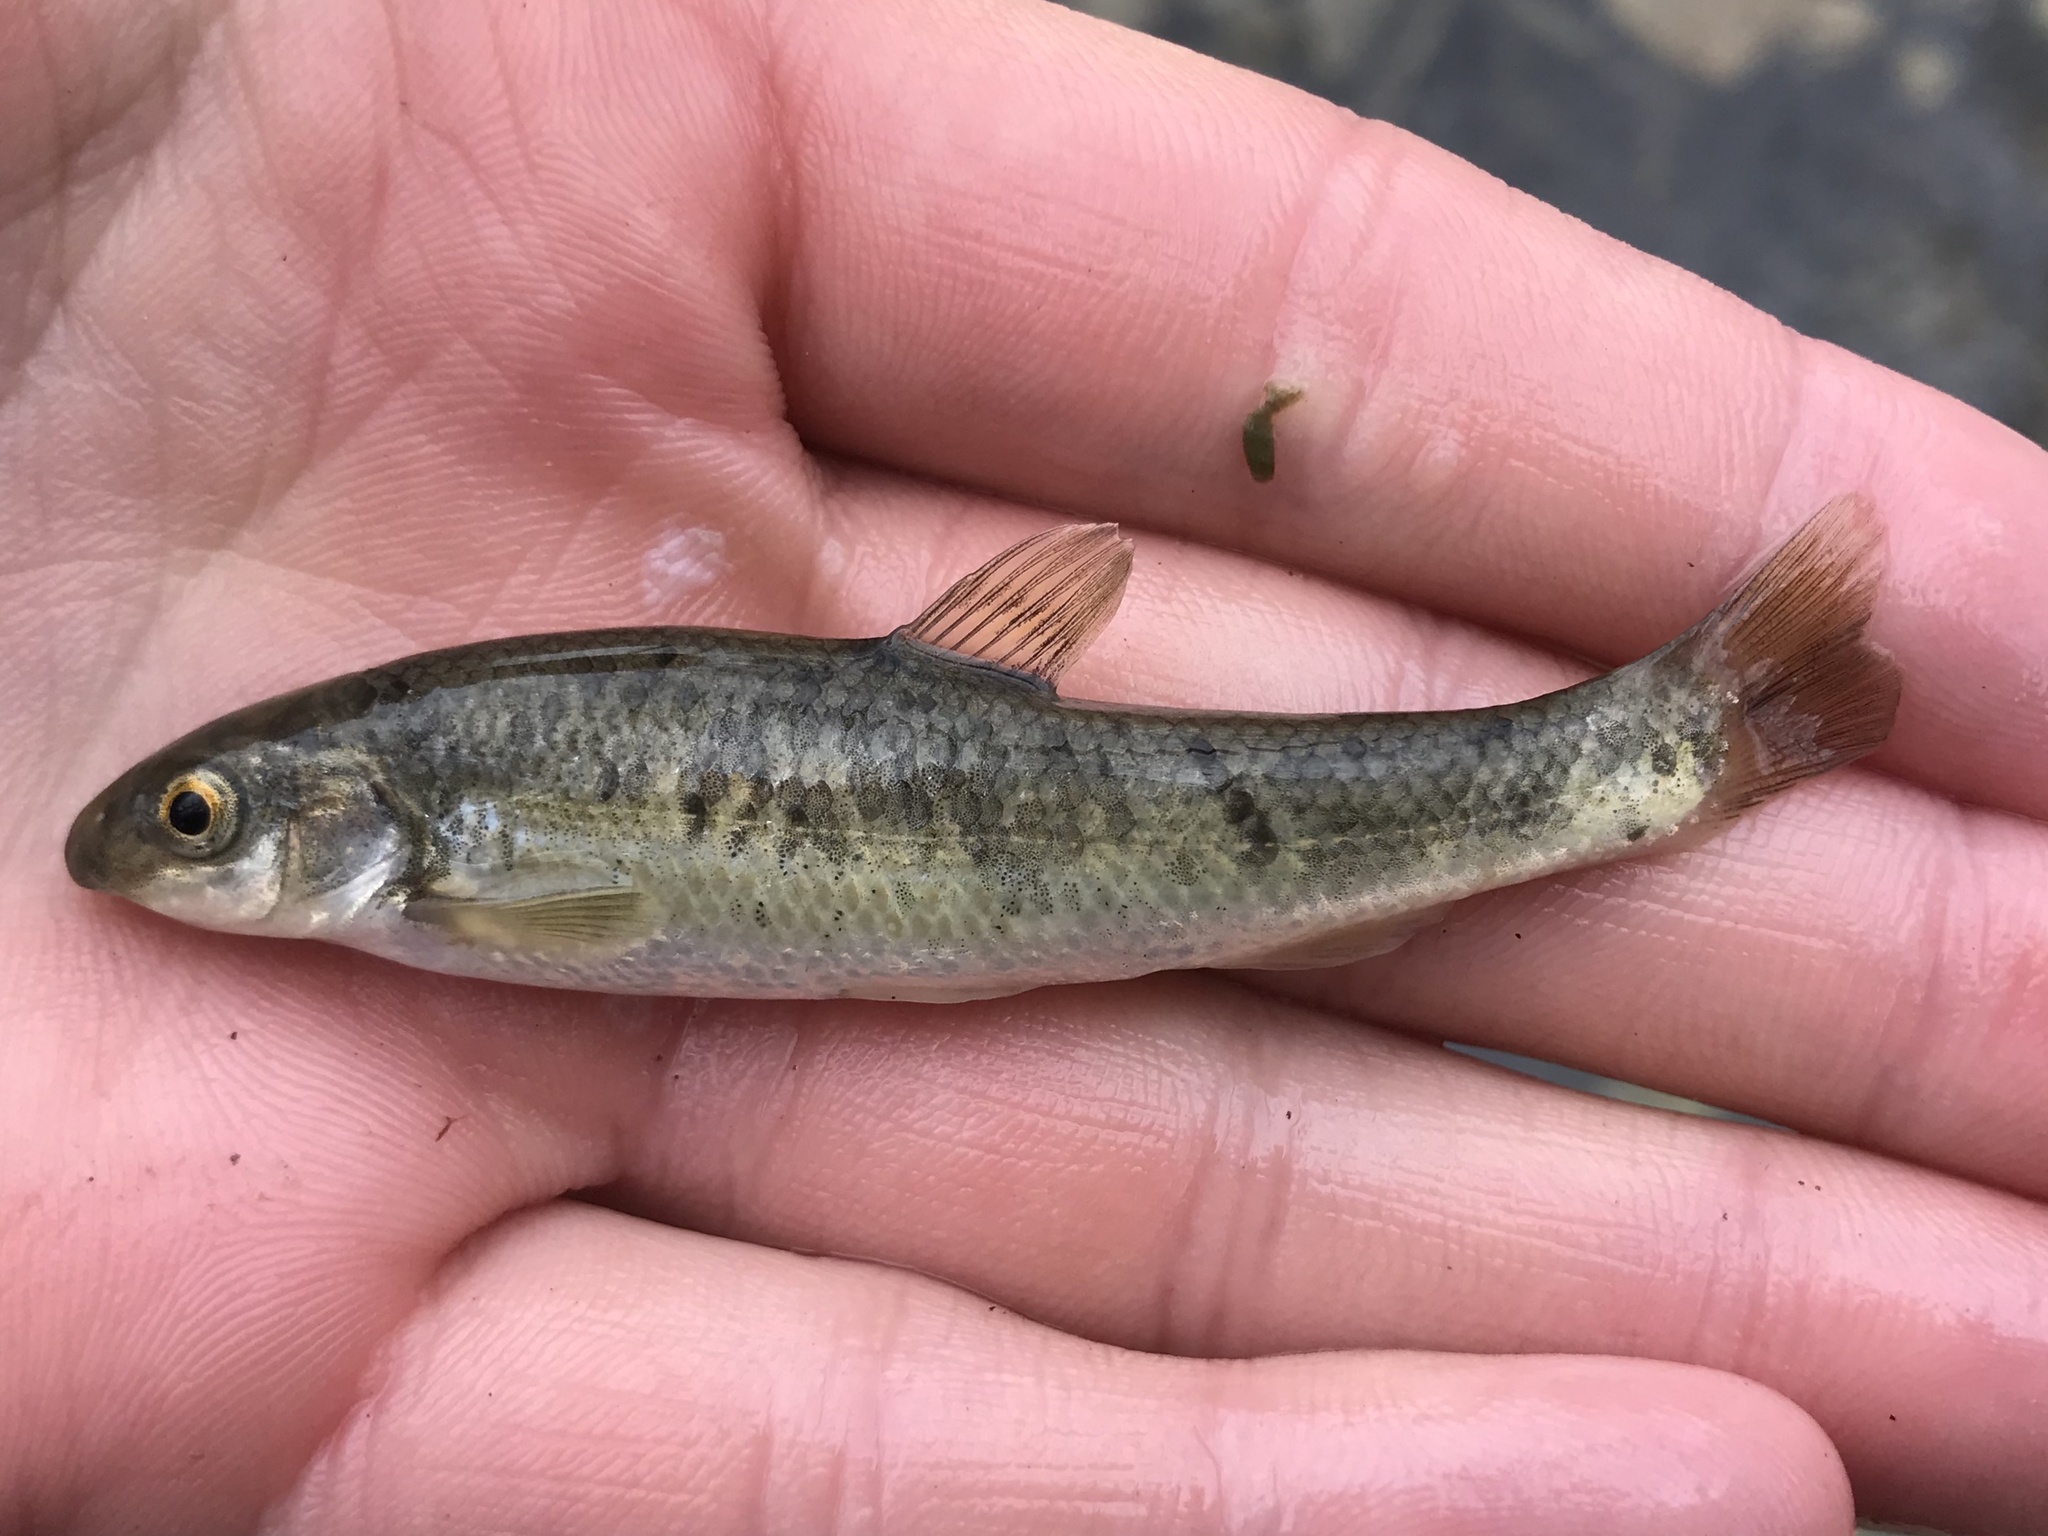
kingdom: Animalia
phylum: Chordata
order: Cypriniformes
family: Cyprinidae
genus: Campostoma
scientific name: Campostoma anomalum
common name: Central stoneroller
